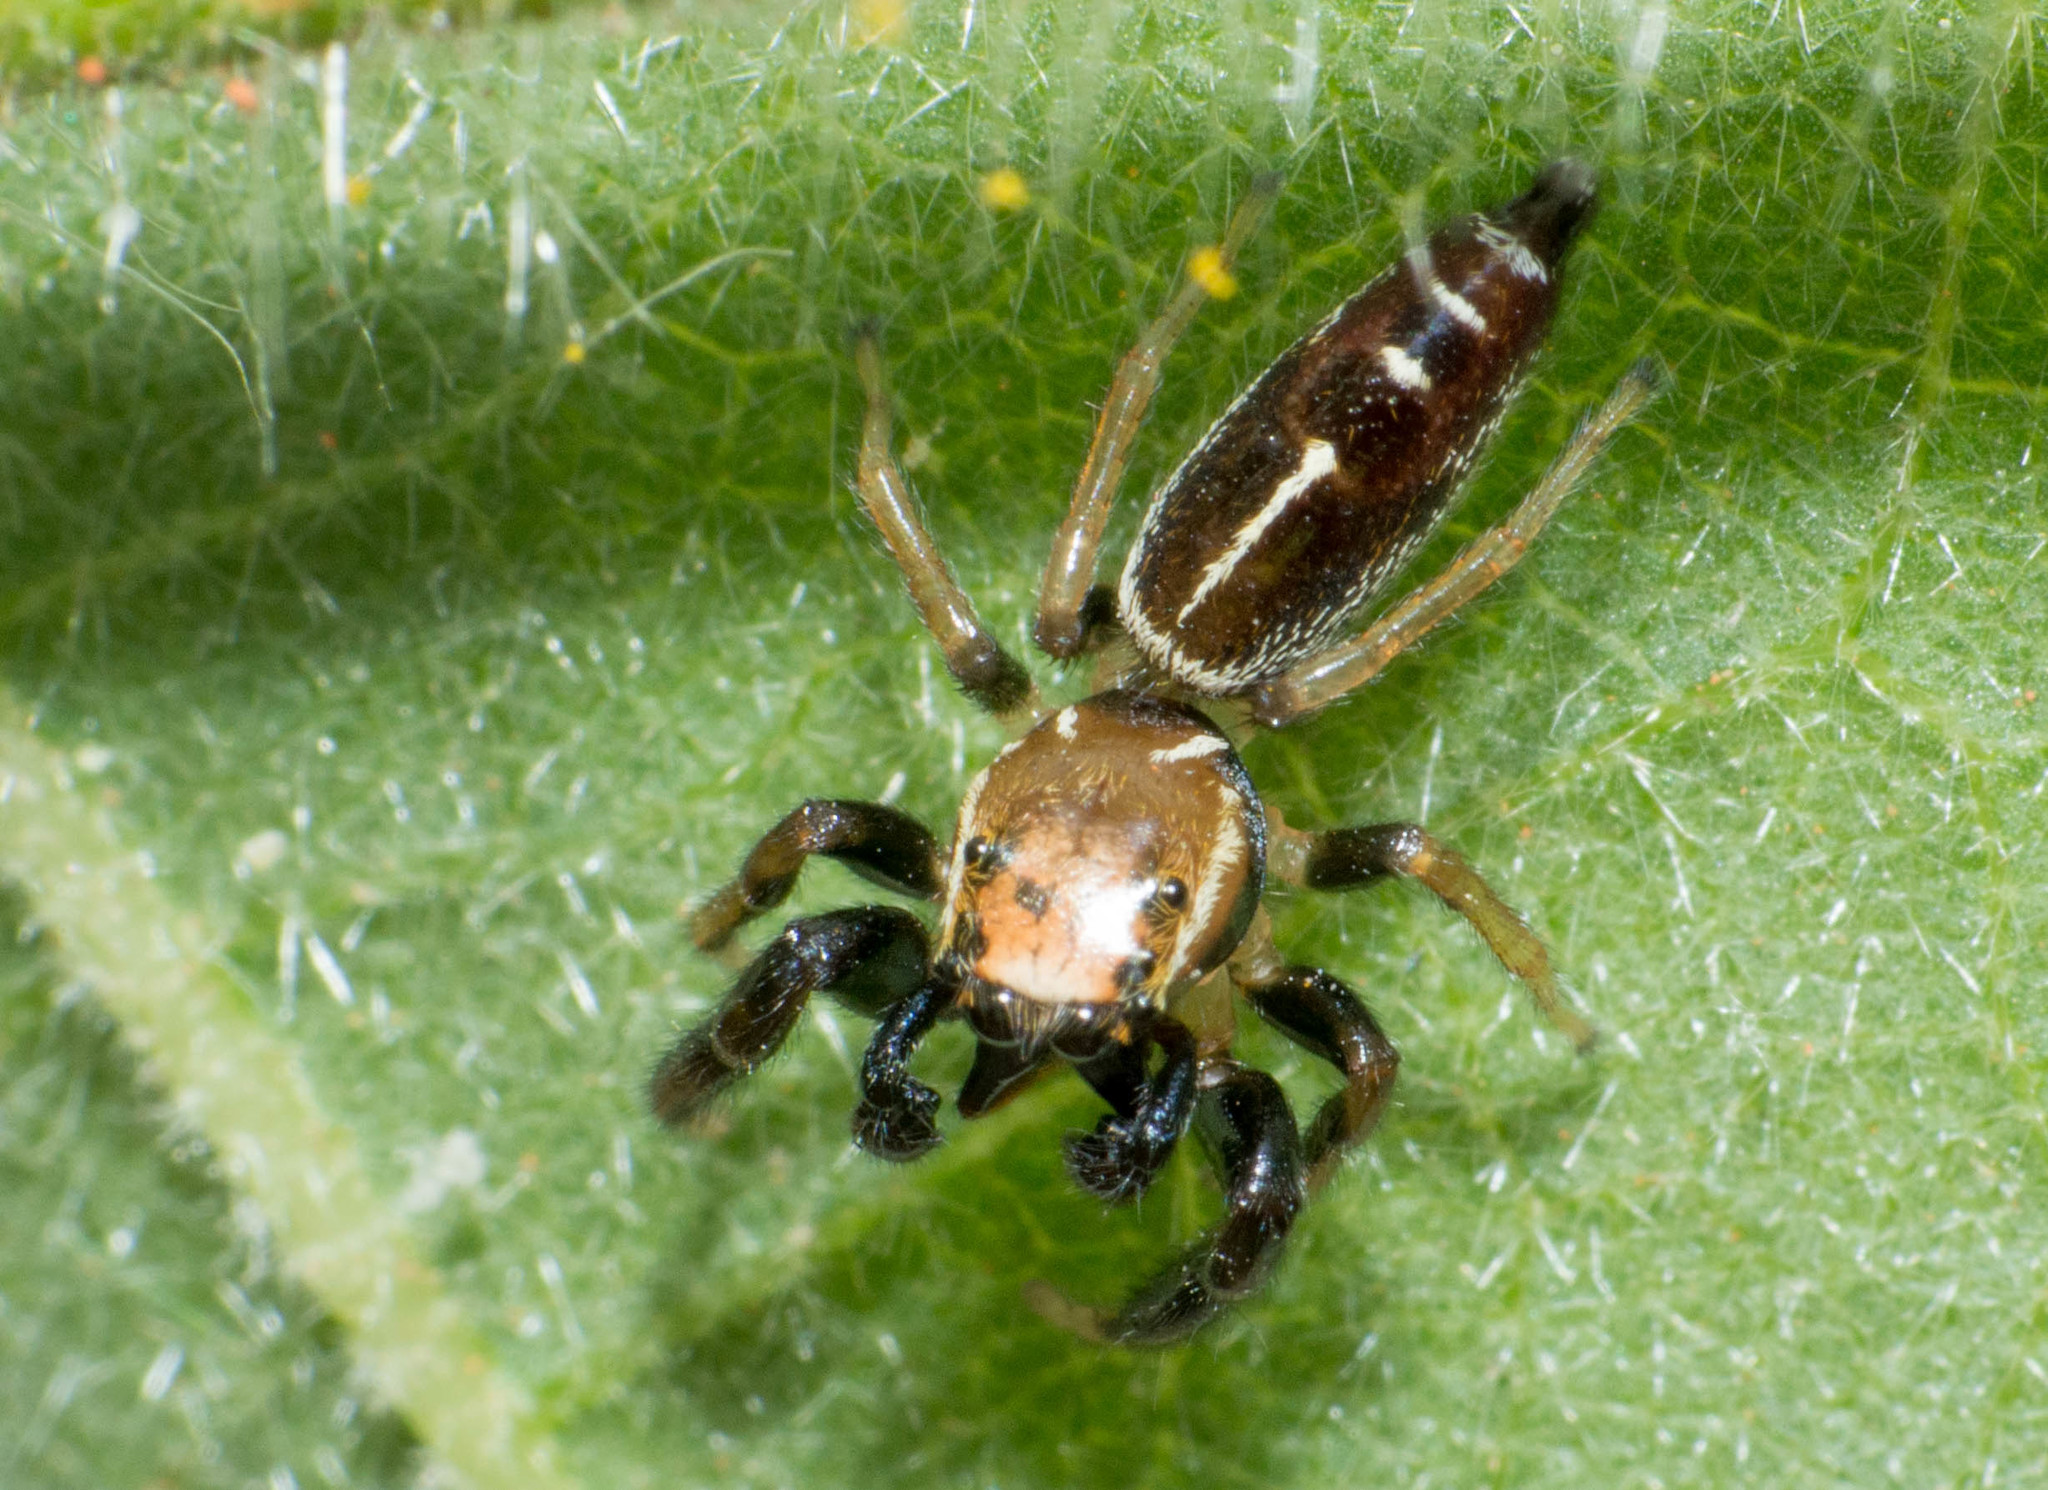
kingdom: Animalia
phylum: Arthropoda
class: Arachnida
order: Araneae
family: Salticidae
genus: Cotinusa
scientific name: Cotinusa vittata
